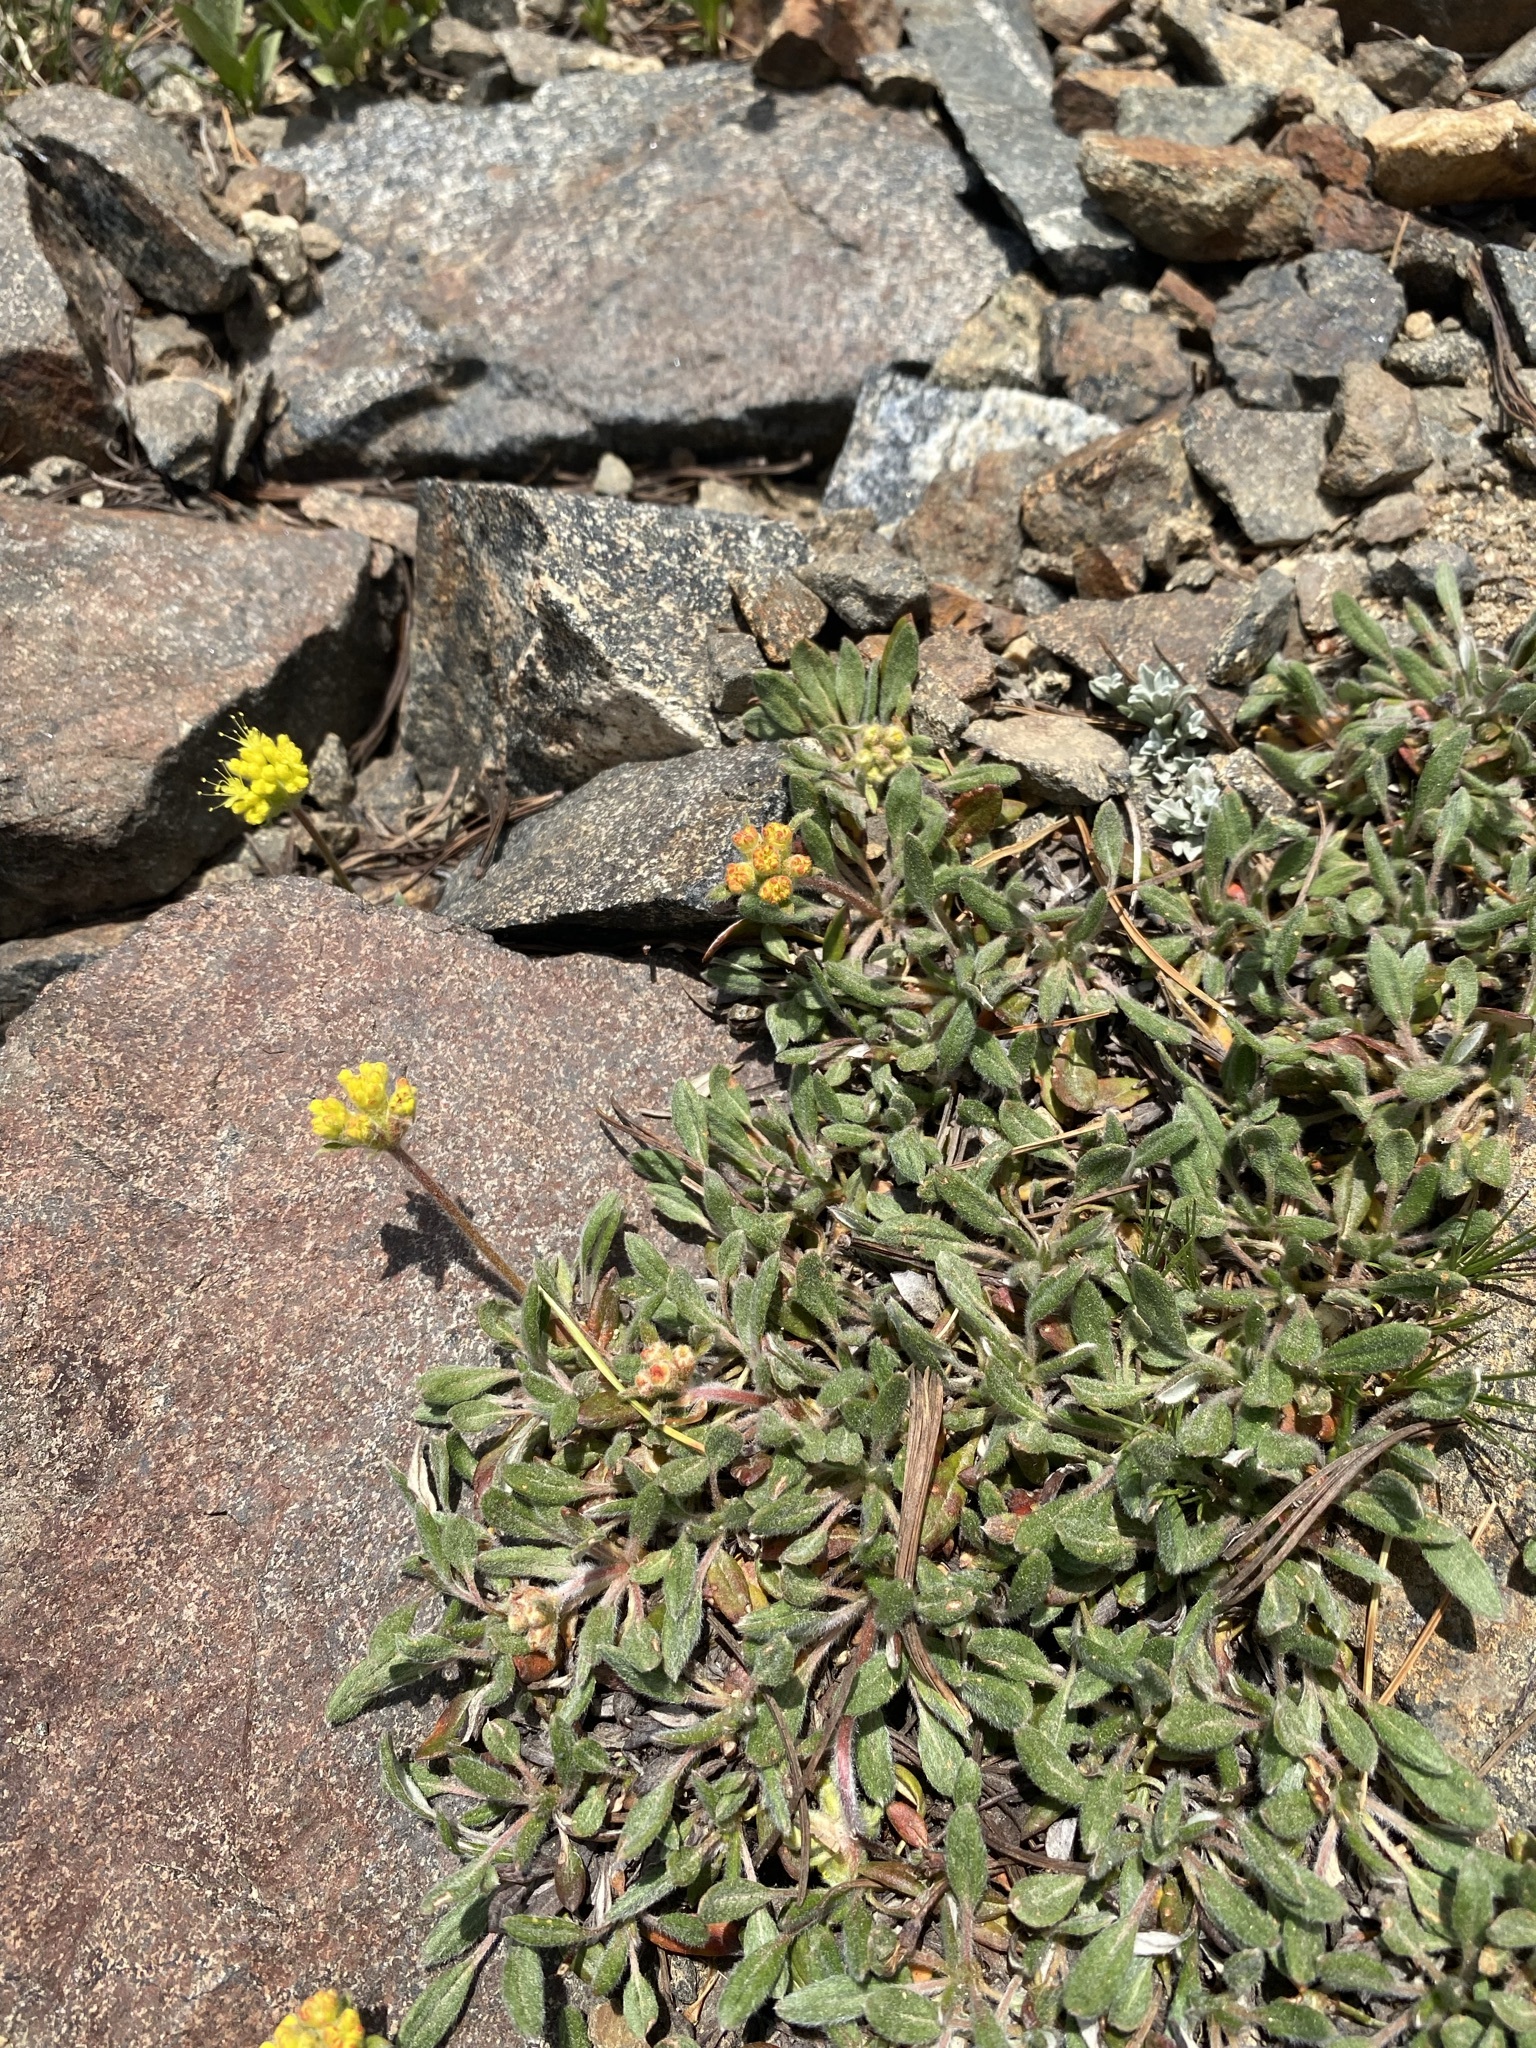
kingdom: Plantae
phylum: Tracheophyta
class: Magnoliopsida
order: Caryophyllales
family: Polygonaceae
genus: Eriogonum
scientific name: Eriogonum flavum
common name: Alpine golden wild buckwheat
